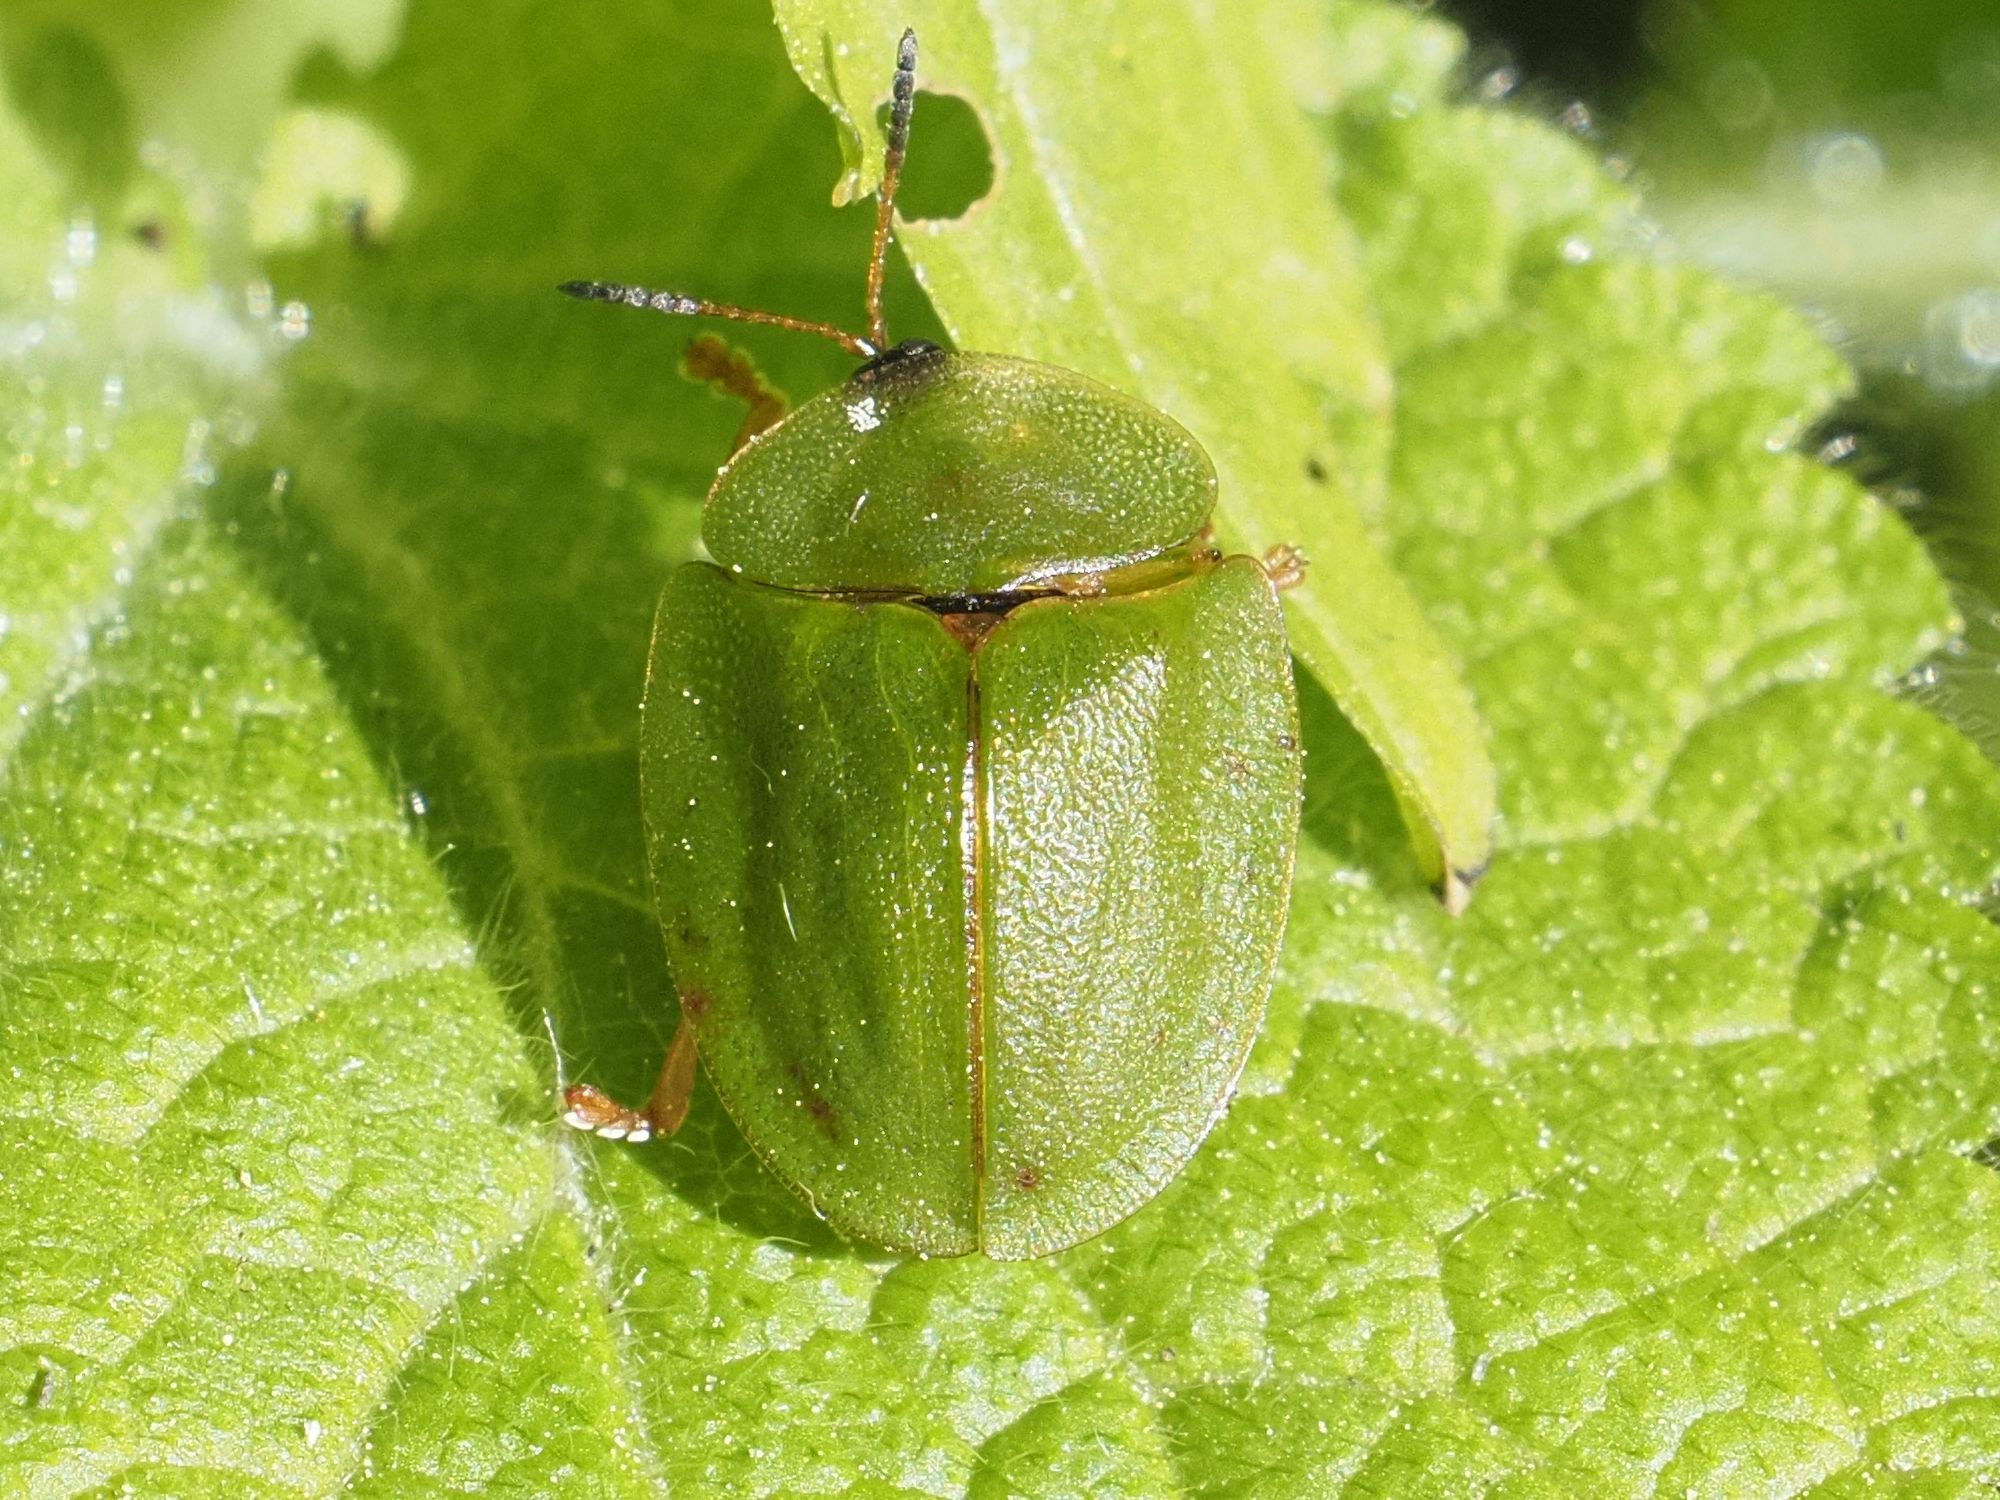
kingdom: Animalia
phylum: Arthropoda
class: Insecta
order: Coleoptera
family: Chrysomelidae
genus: Cassida
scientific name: Cassida viridis
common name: Green tortoise beetle
